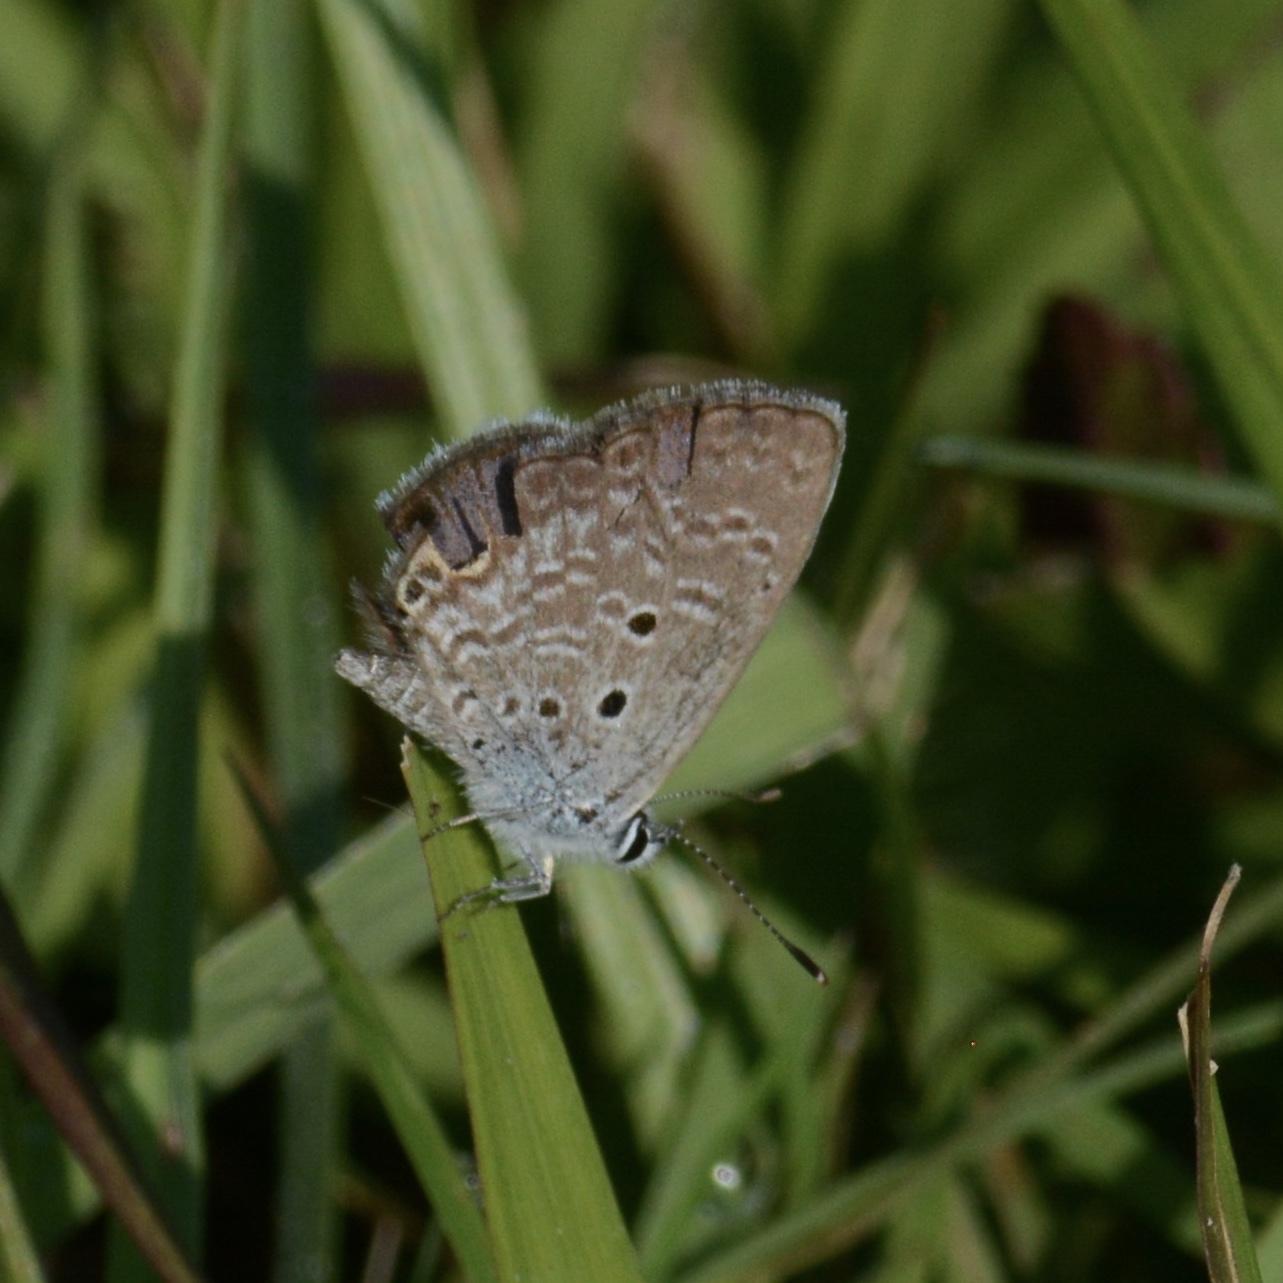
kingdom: Animalia
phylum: Arthropoda
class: Insecta
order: Lepidoptera
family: Lycaenidae
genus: Hemiargus
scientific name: Hemiargus ceraunus
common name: Ceraunus blue
